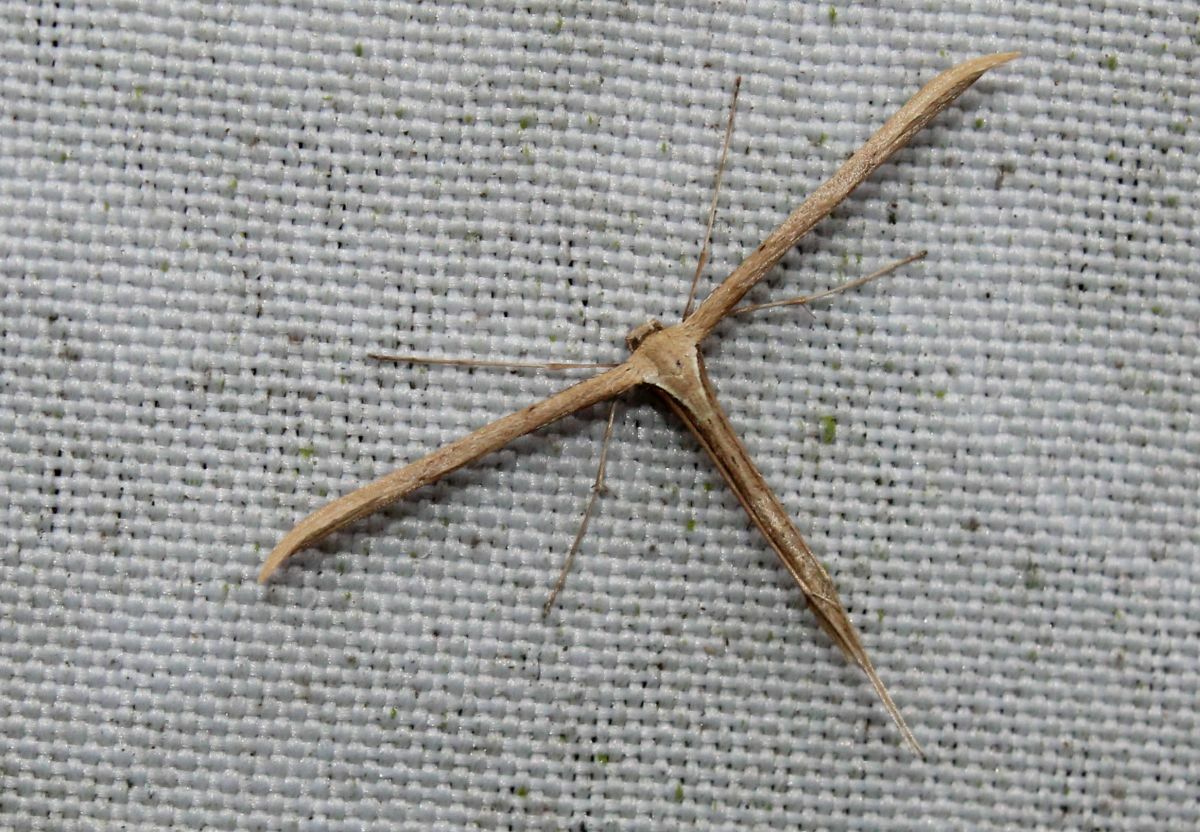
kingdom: Animalia
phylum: Arthropoda
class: Insecta
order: Lepidoptera
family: Pterophoridae
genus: Emmelina
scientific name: Emmelina monodactyla
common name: Common plume
